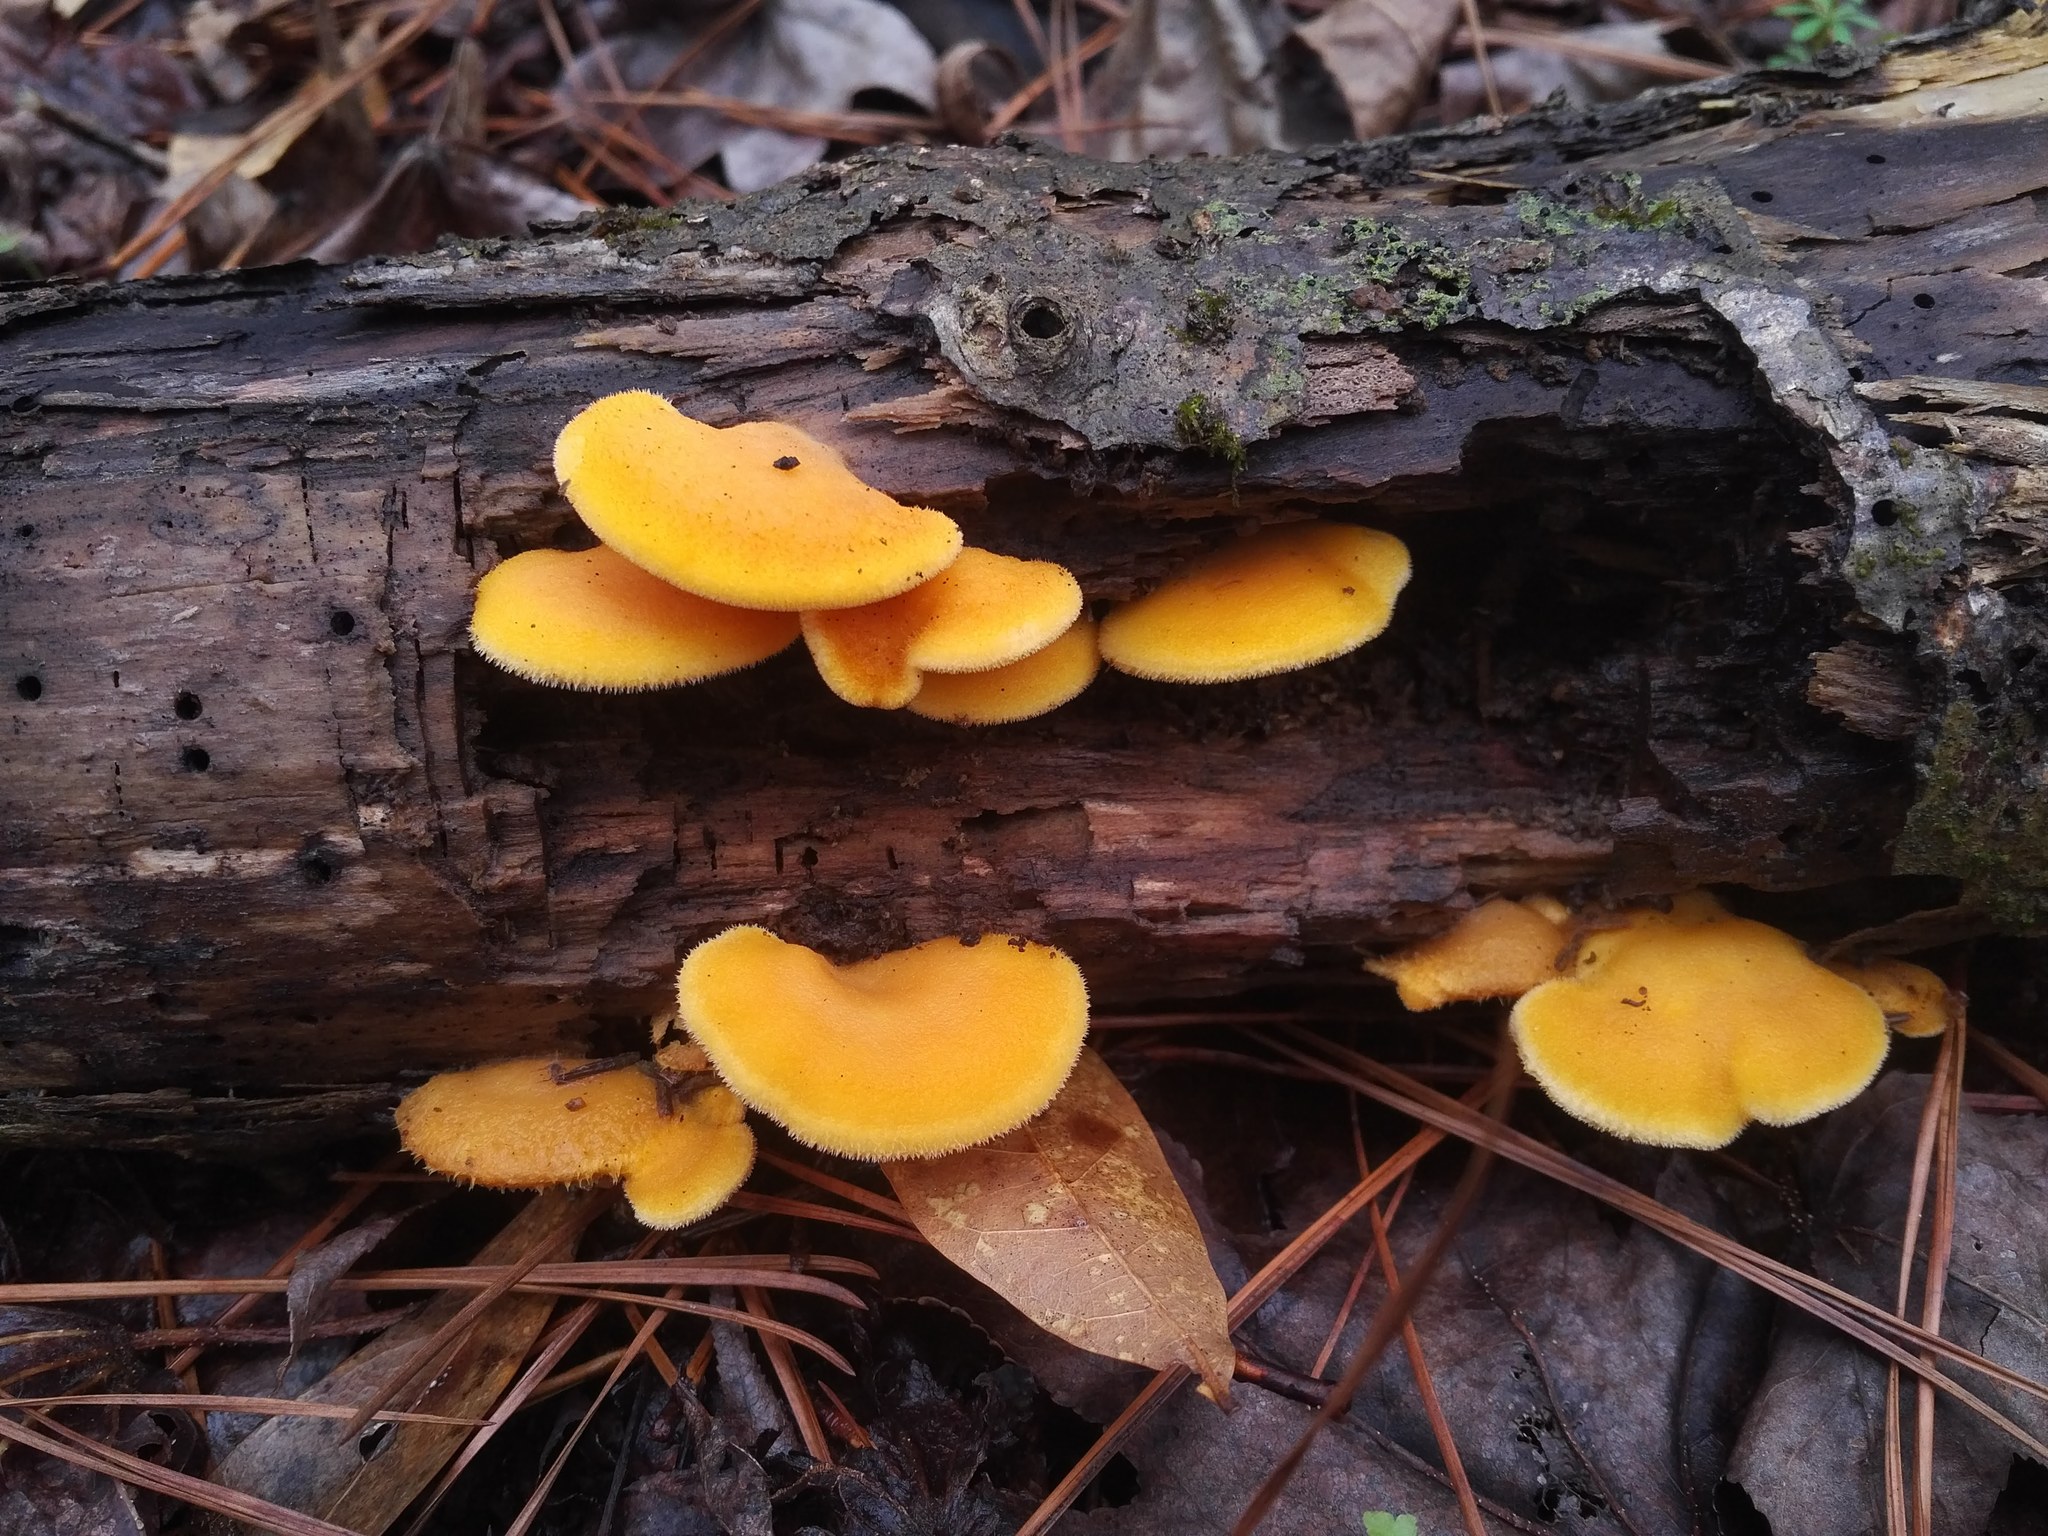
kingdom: Fungi
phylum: Basidiomycota
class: Agaricomycetes
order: Agaricales
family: Phyllotopsidaceae
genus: Phyllotopsis
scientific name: Phyllotopsis nidulans
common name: Orange mock oyster
